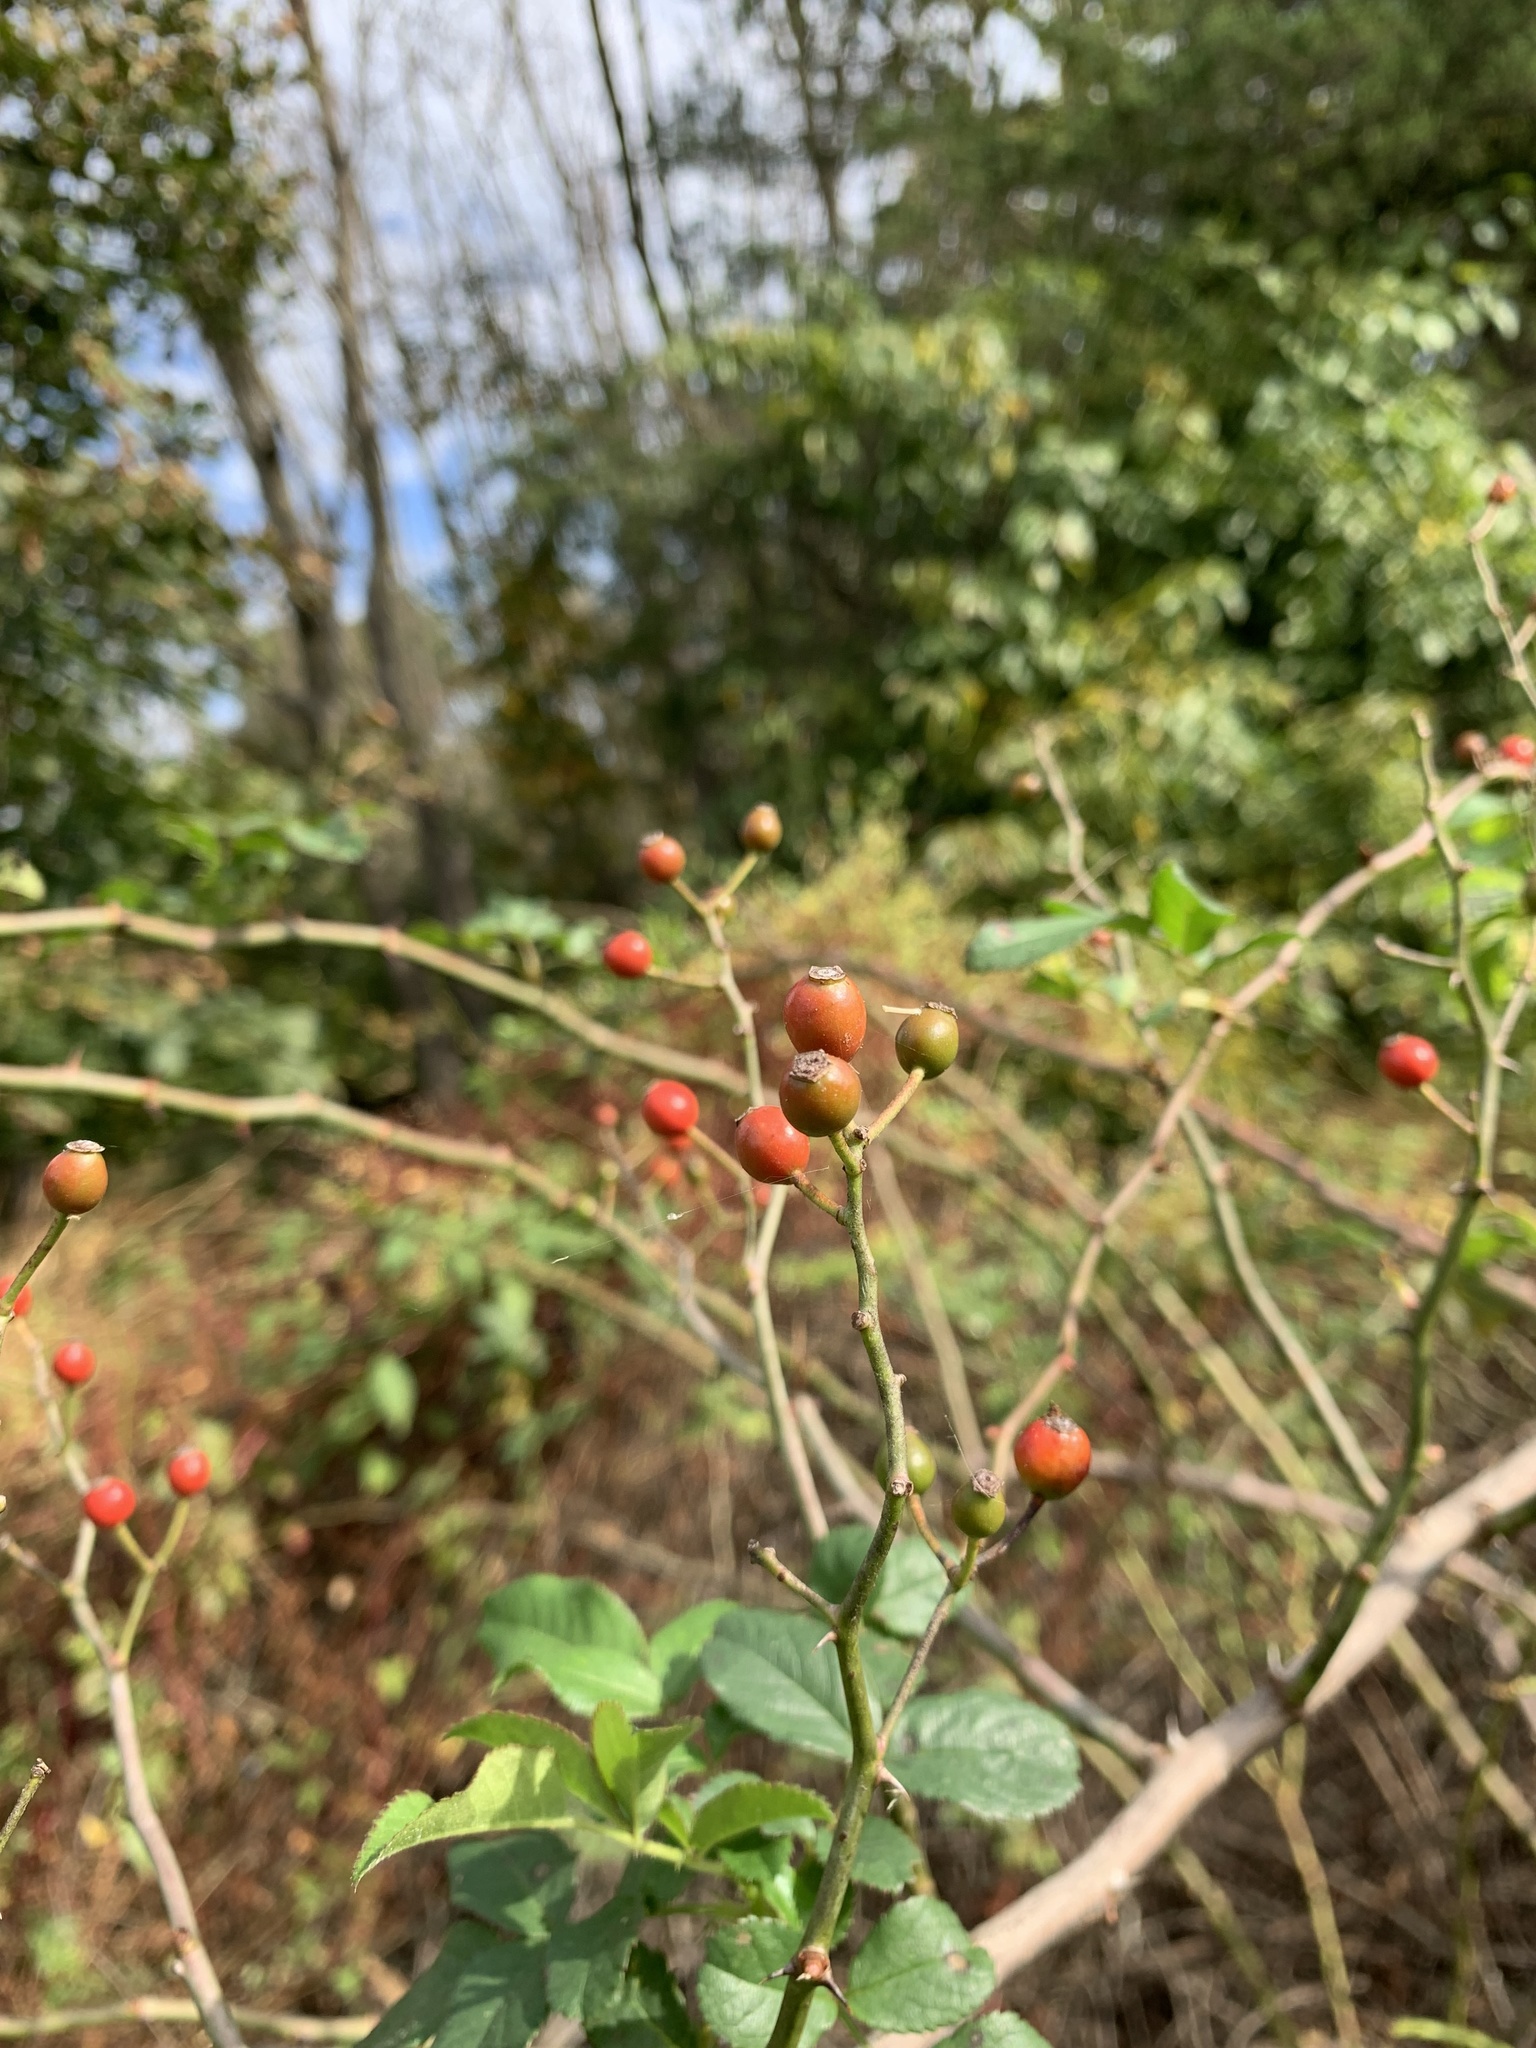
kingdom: Plantae
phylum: Tracheophyta
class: Magnoliopsida
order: Rosales
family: Rosaceae
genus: Rosa
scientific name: Rosa multiflora
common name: Multiflora rose
